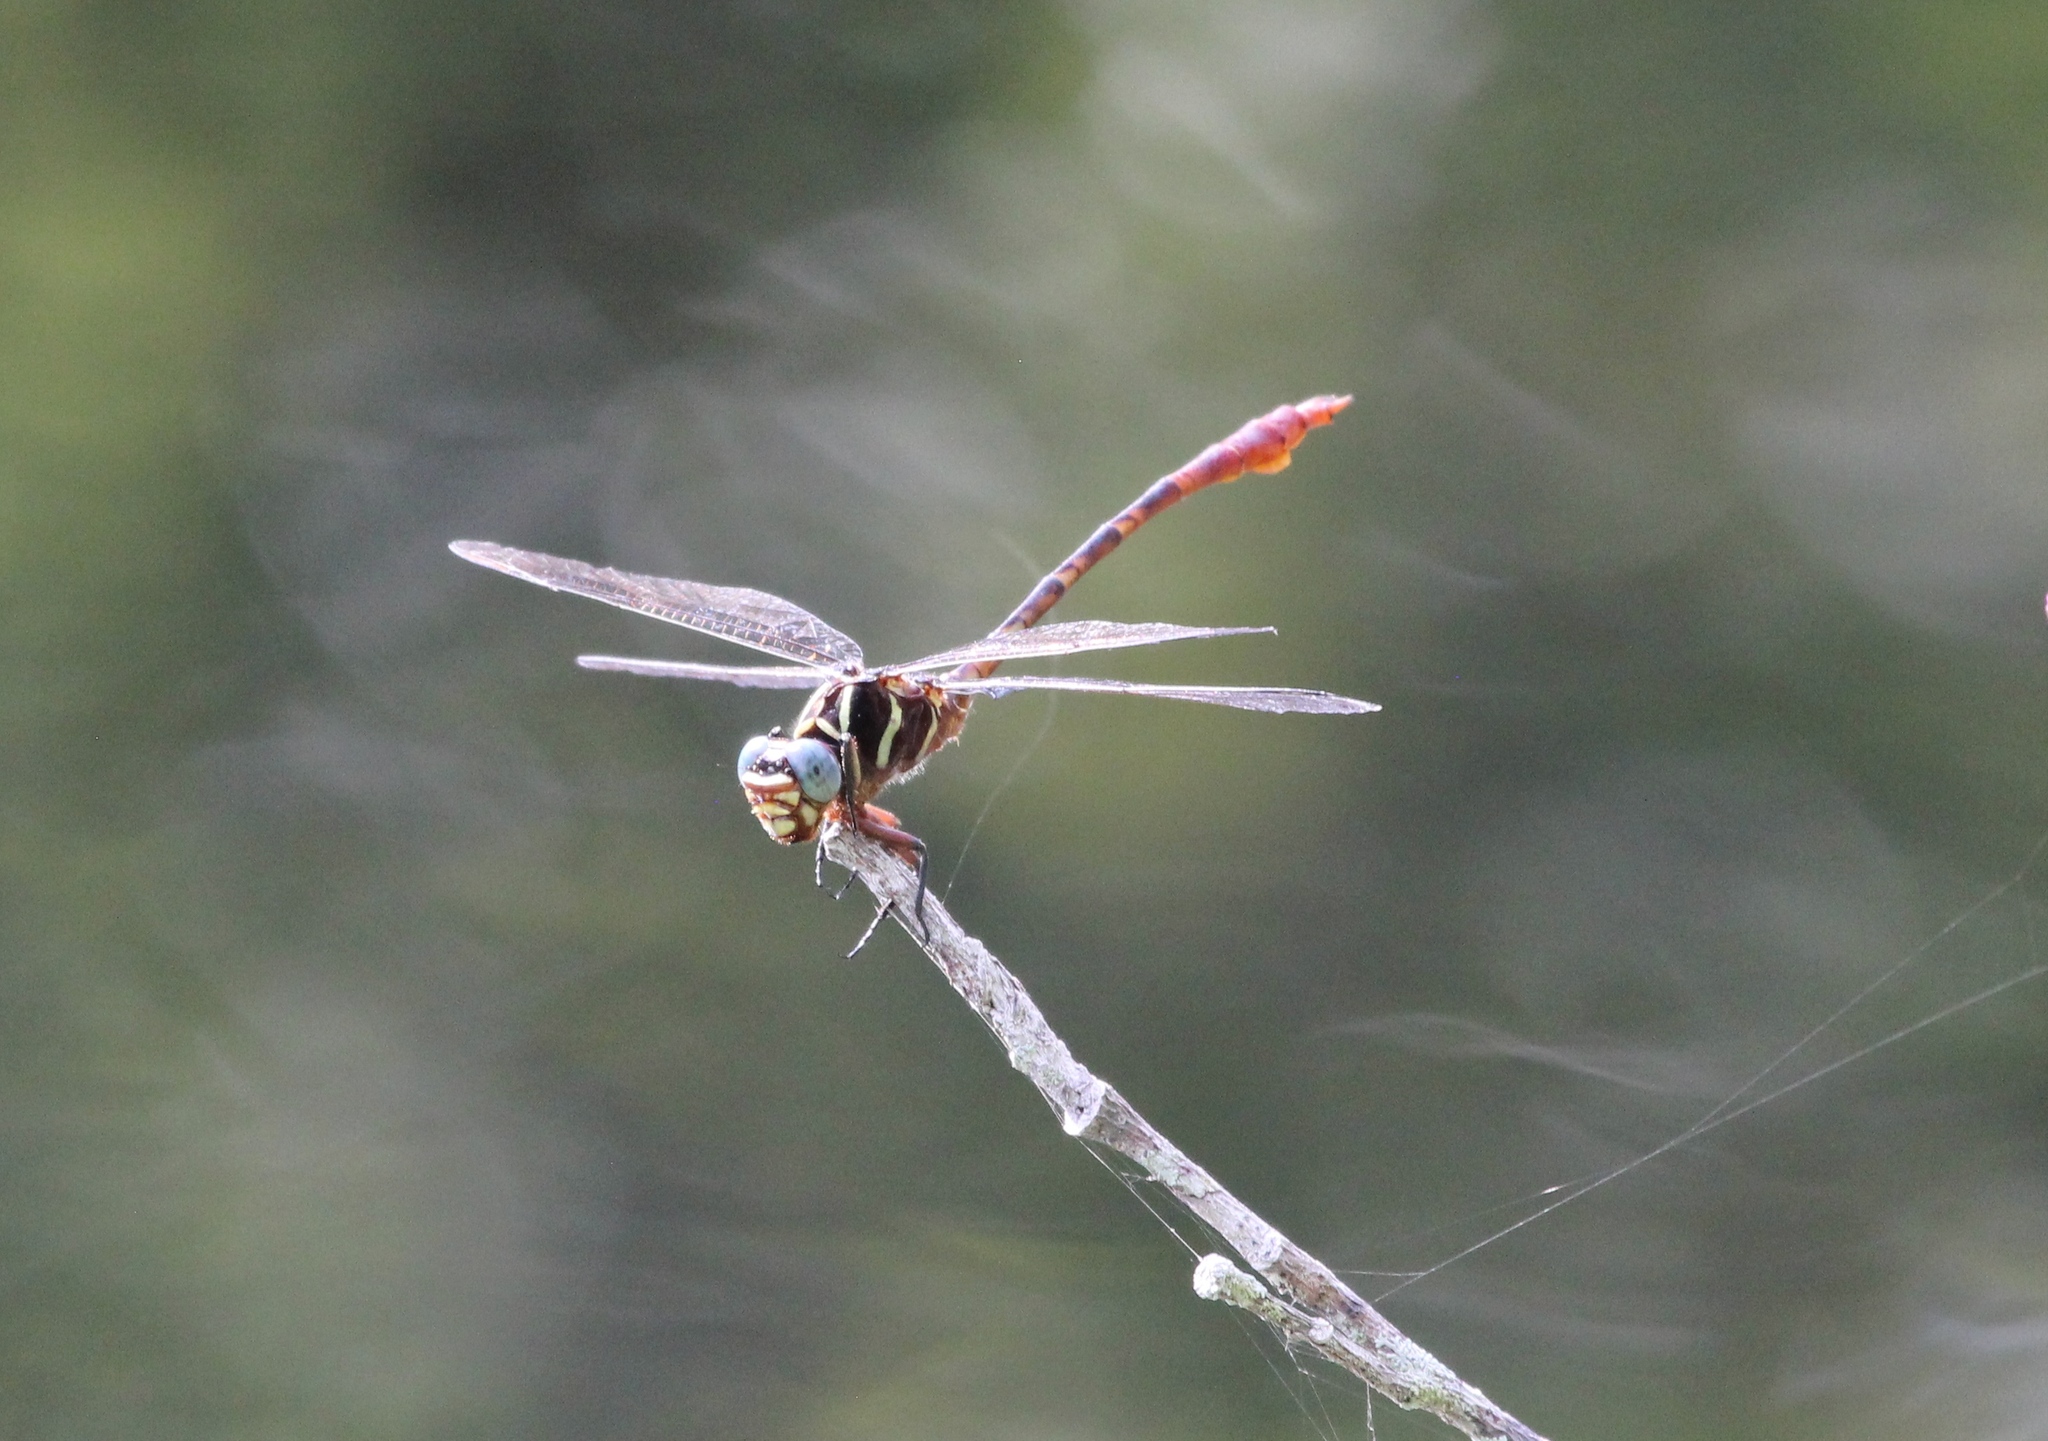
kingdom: Animalia
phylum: Arthropoda
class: Insecta
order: Odonata
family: Gomphidae
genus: Aphylla
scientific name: Aphylla williamsoni
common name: Two-striped forceptail
